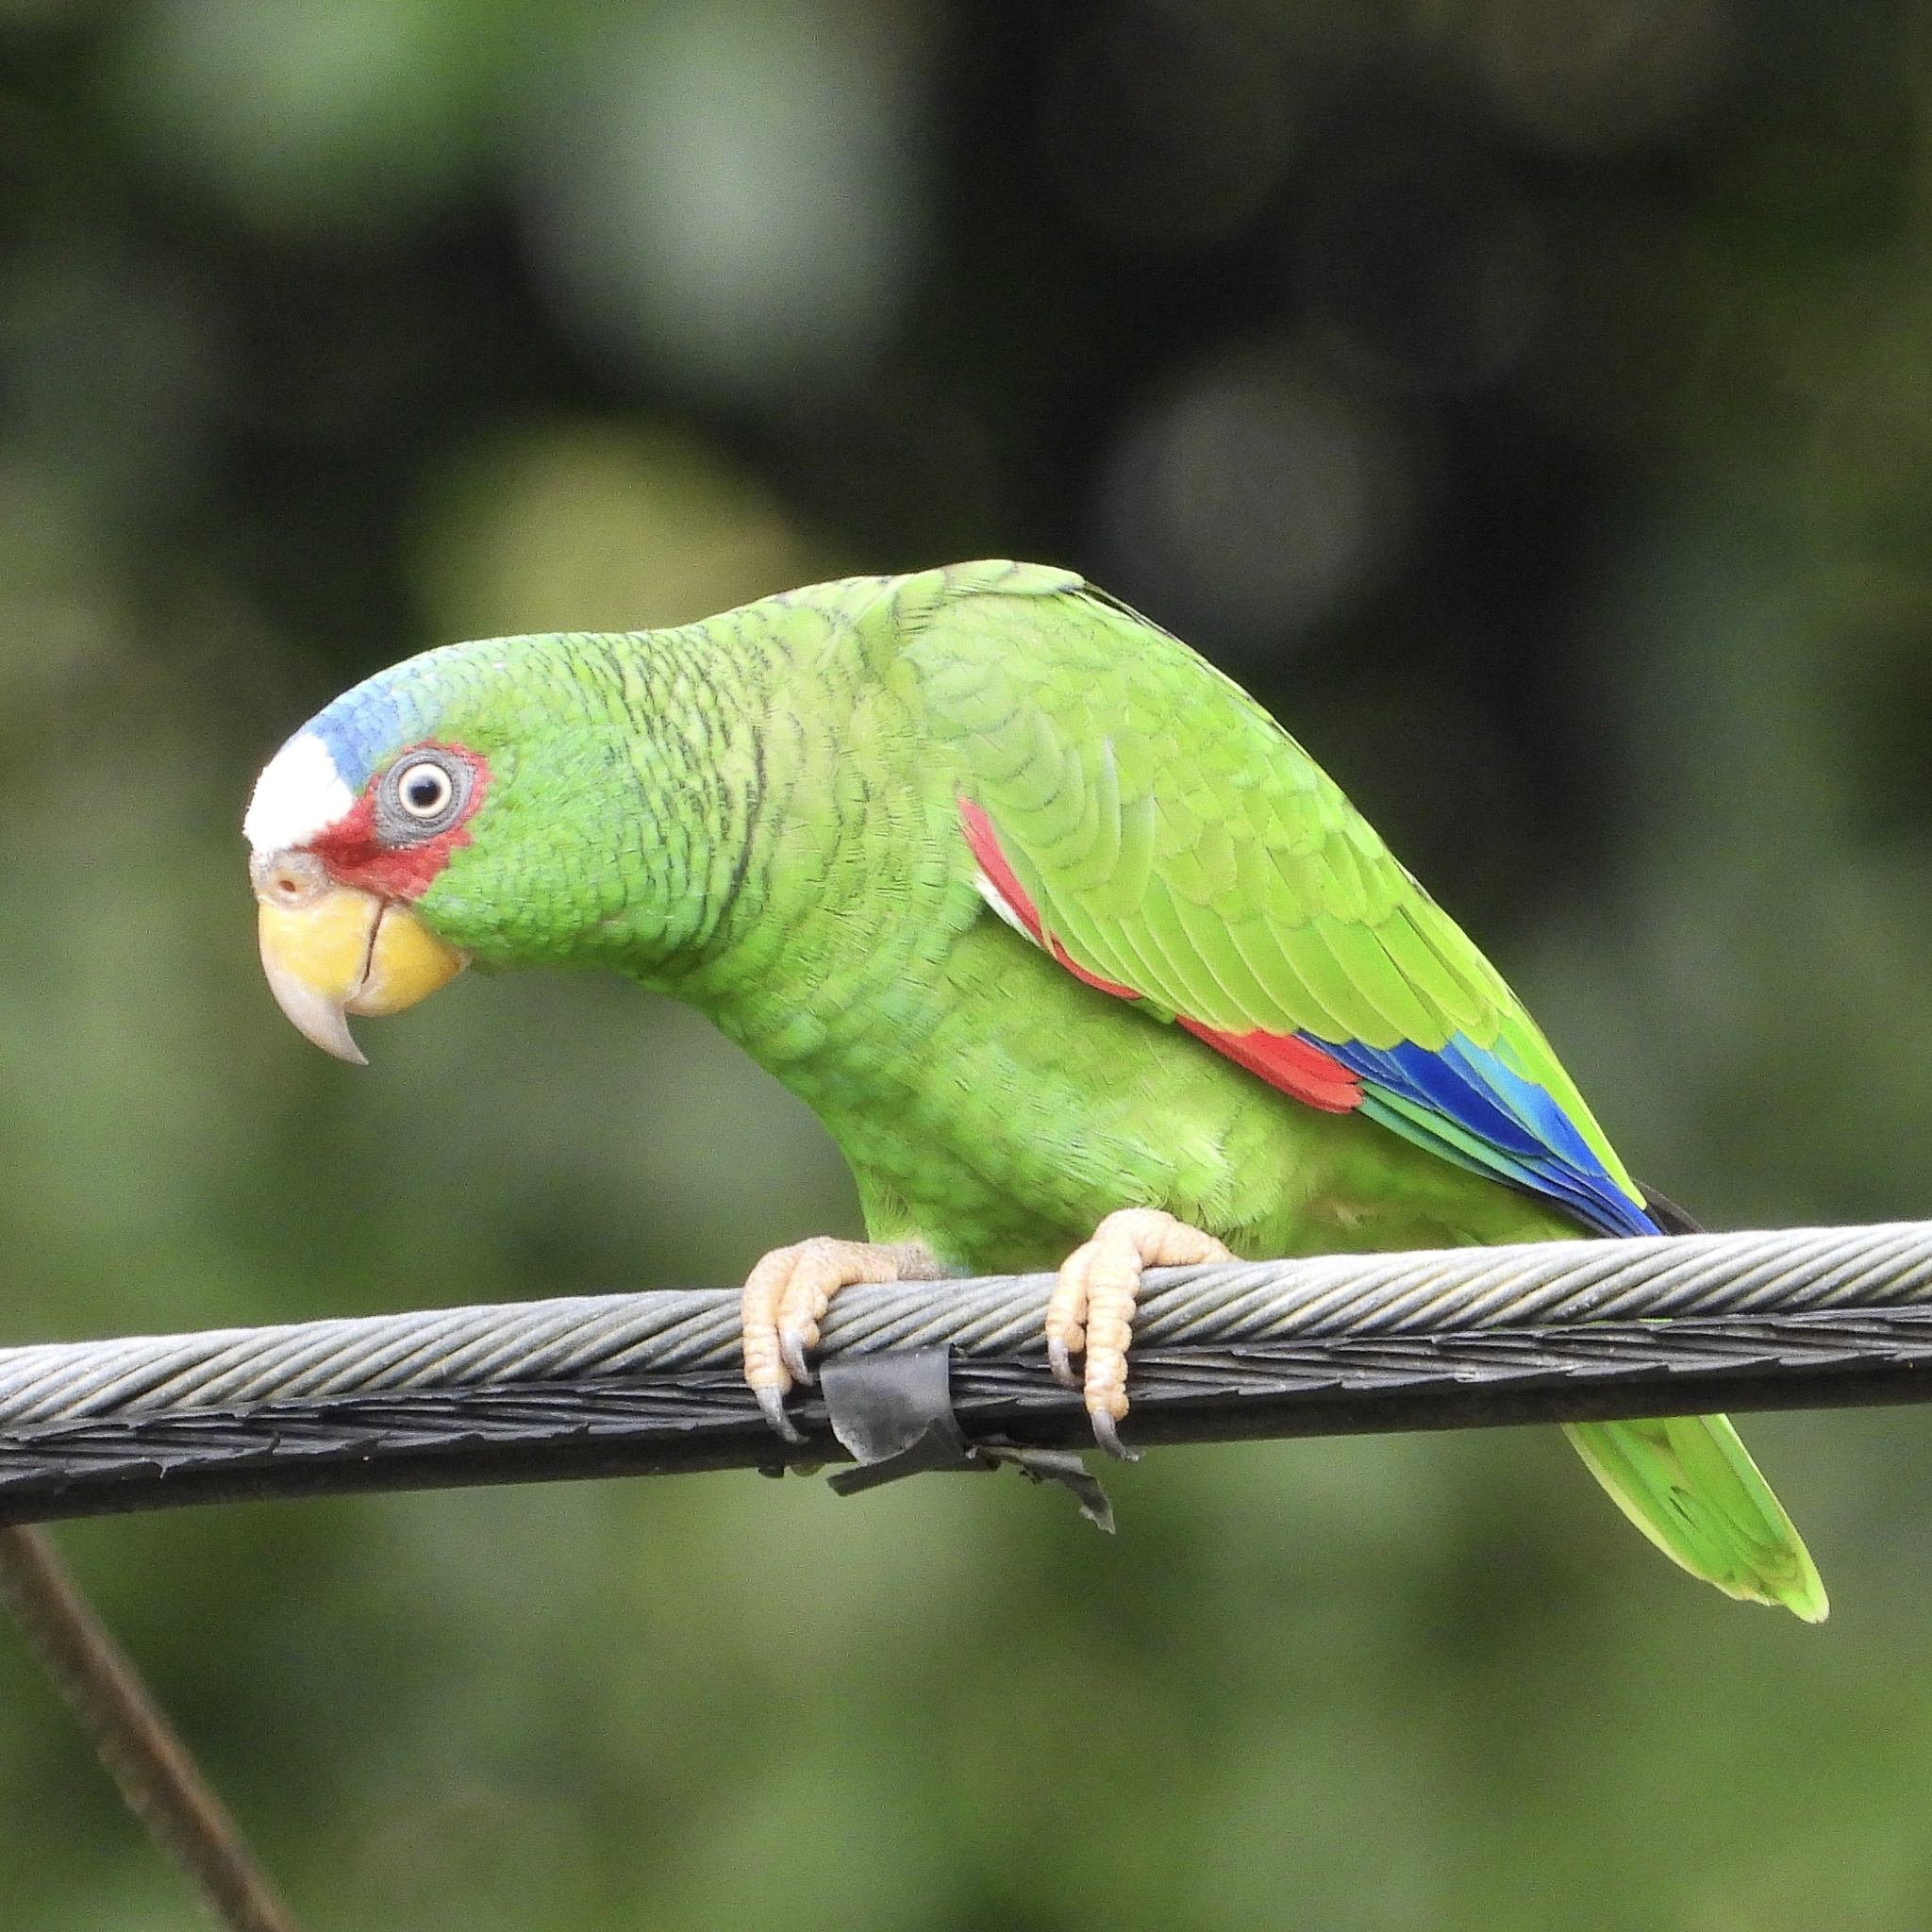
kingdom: Animalia
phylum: Chordata
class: Aves
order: Psittaciformes
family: Psittacidae
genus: Amazona
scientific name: Amazona albifrons
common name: White-fronted amazon
